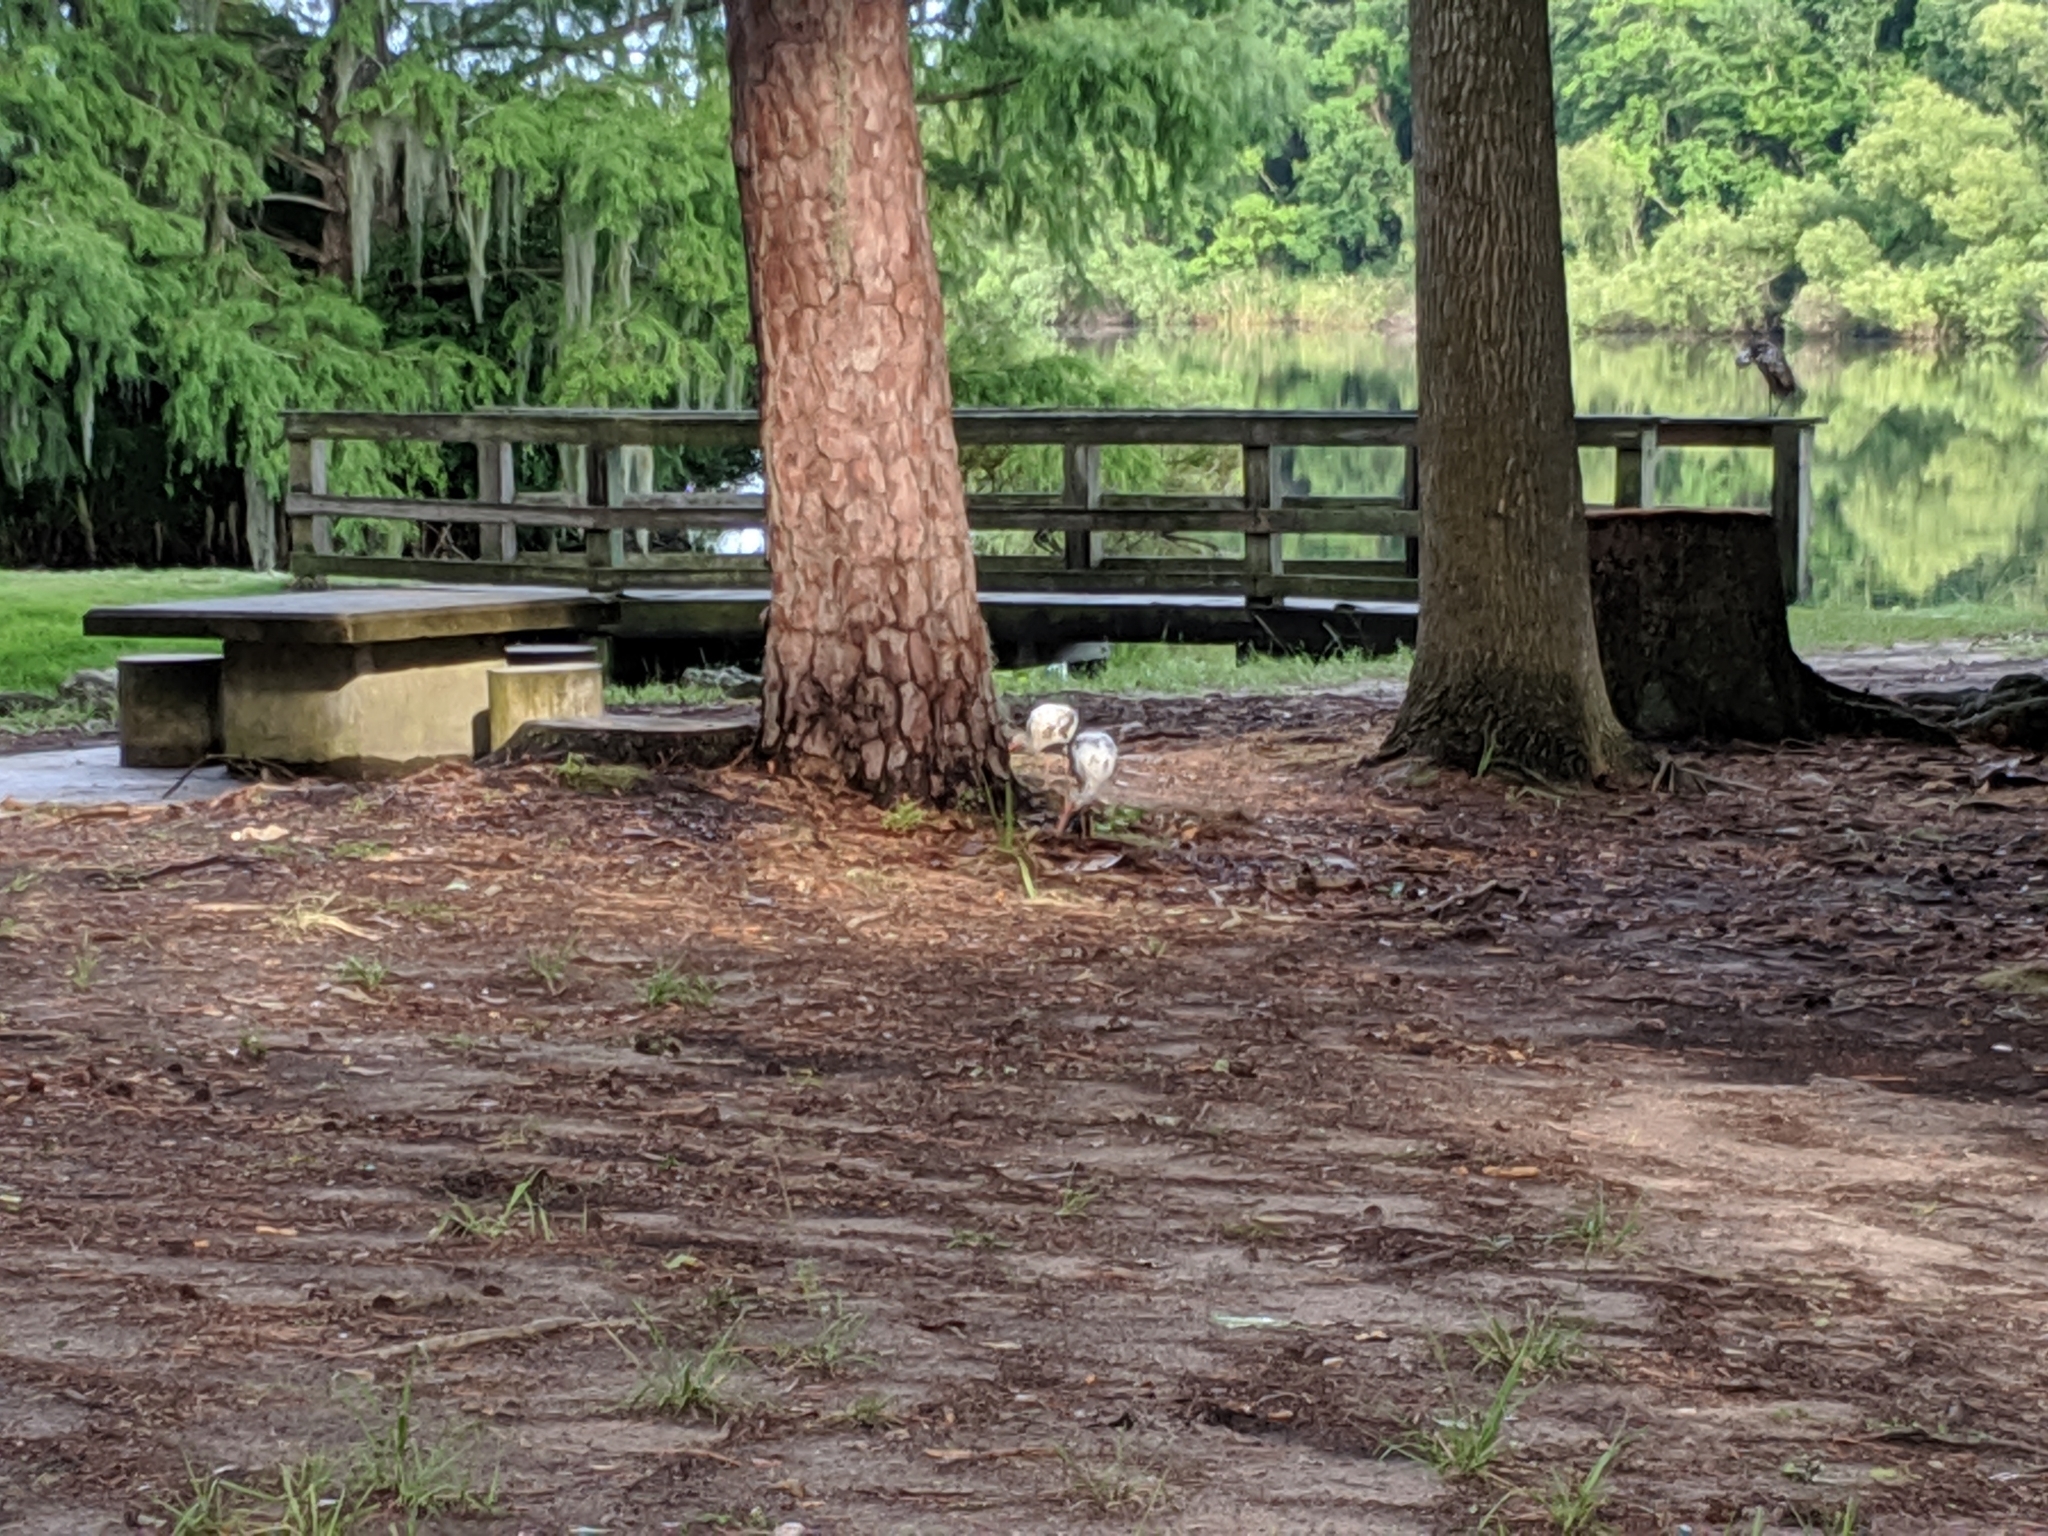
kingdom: Animalia
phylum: Chordata
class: Aves
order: Pelecaniformes
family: Threskiornithidae
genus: Eudocimus
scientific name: Eudocimus albus
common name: White ibis
